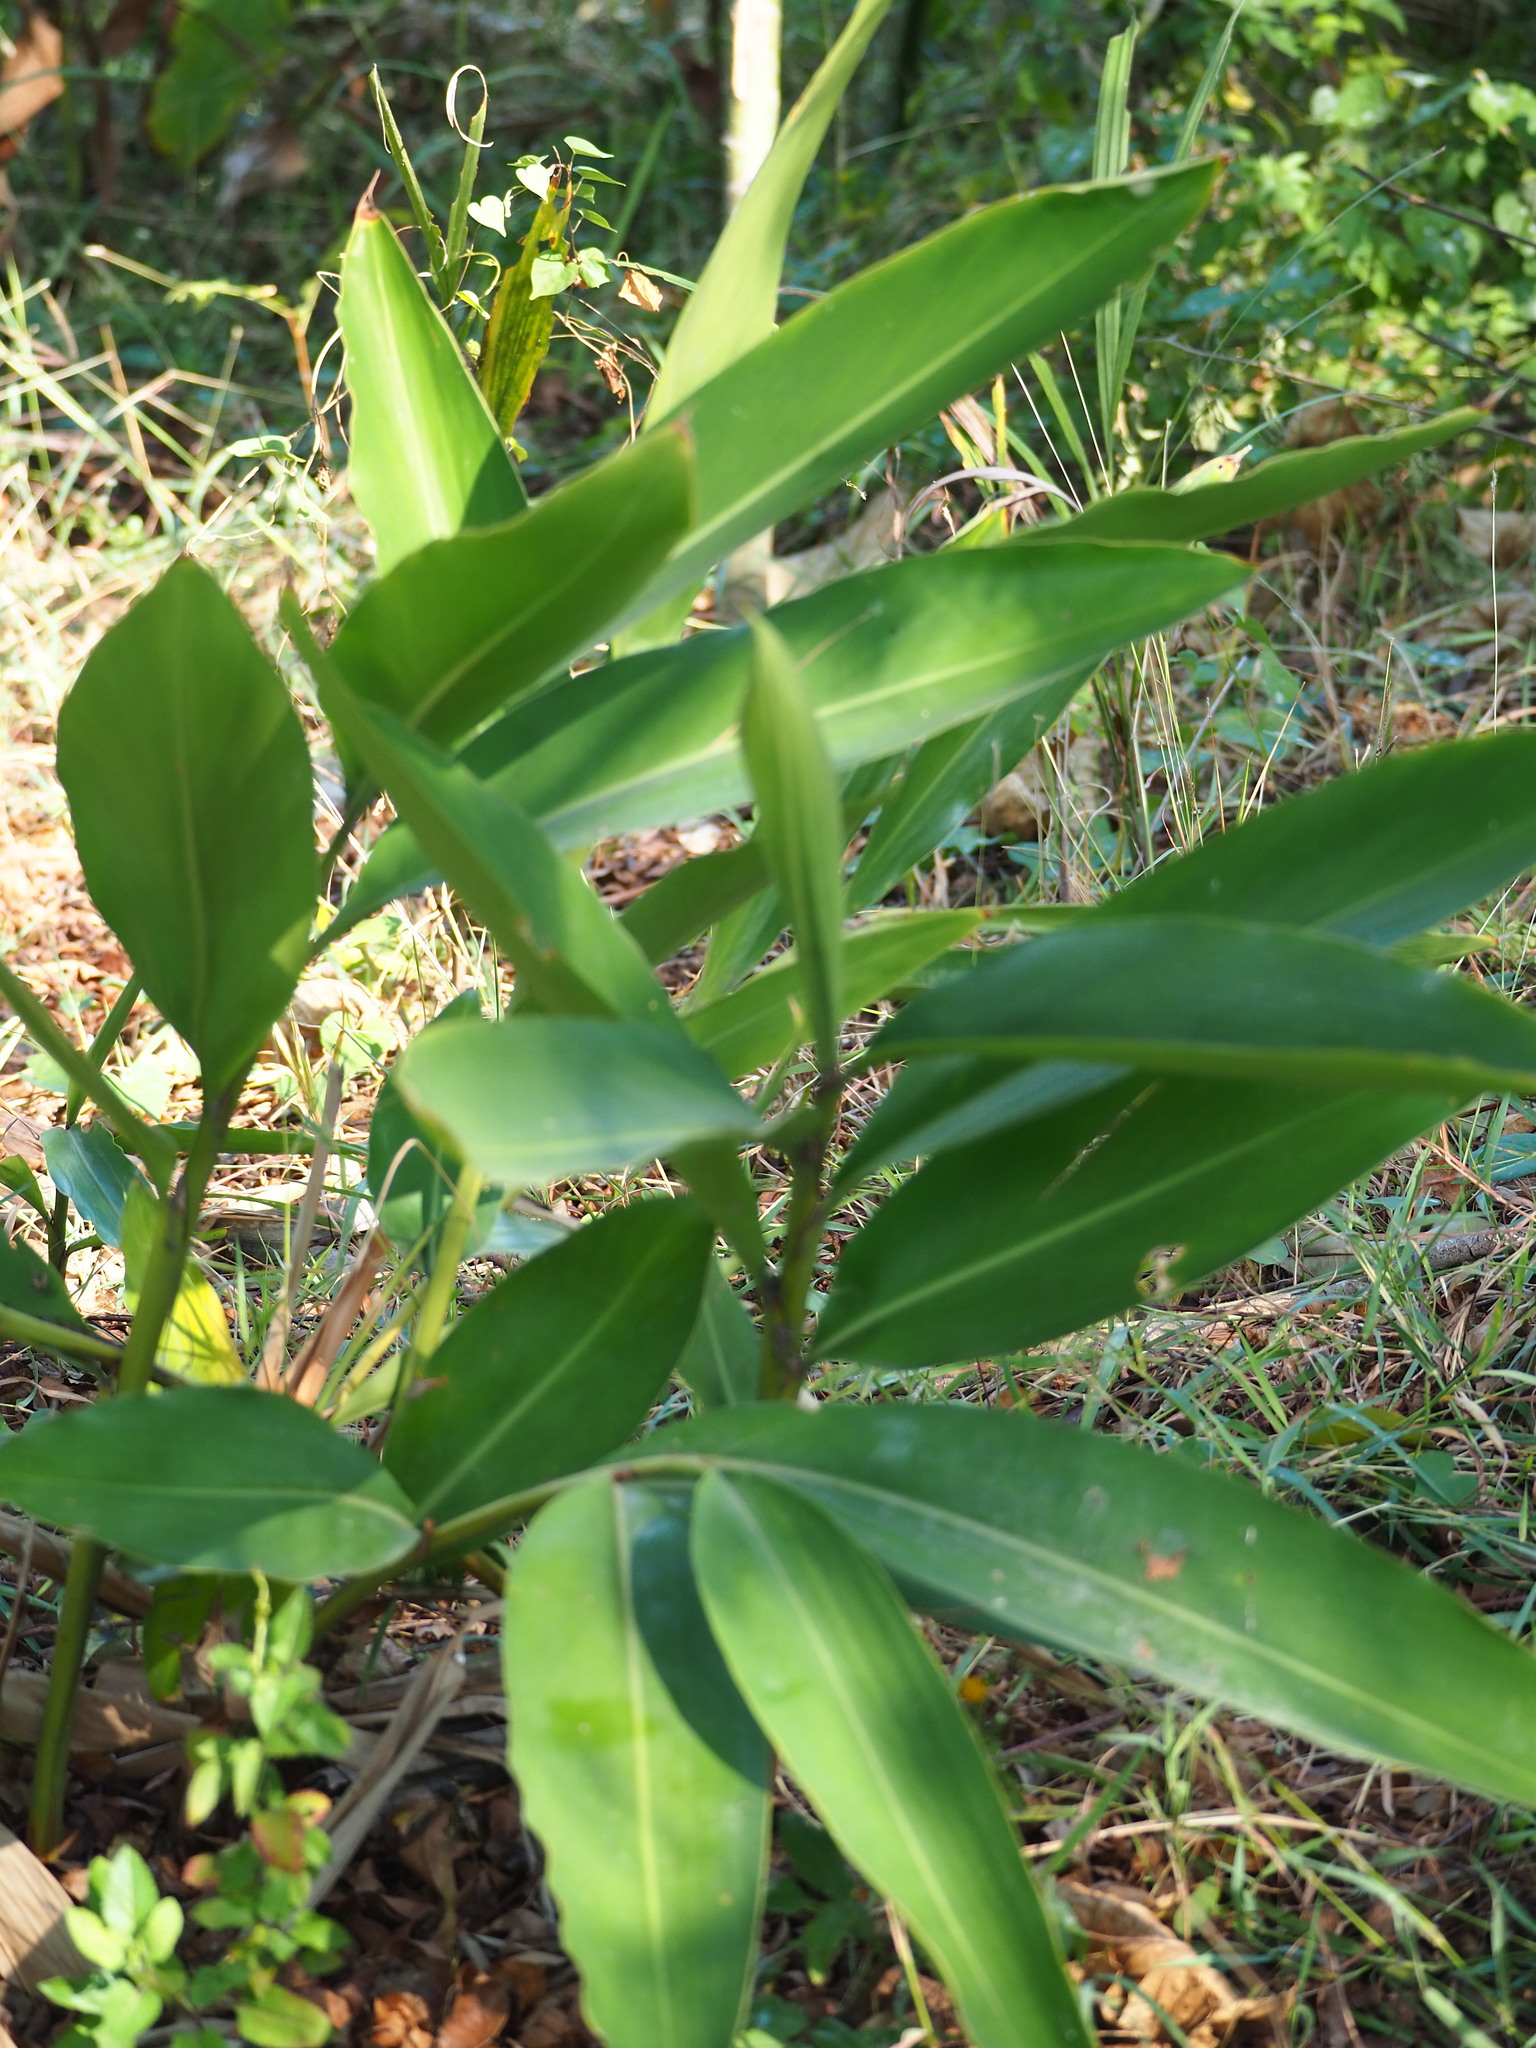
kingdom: Plantae
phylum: Tracheophyta
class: Liliopsida
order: Zingiberales
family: Zingiberaceae
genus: Alpinia
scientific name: Alpinia zerumbet
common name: Shellplant
